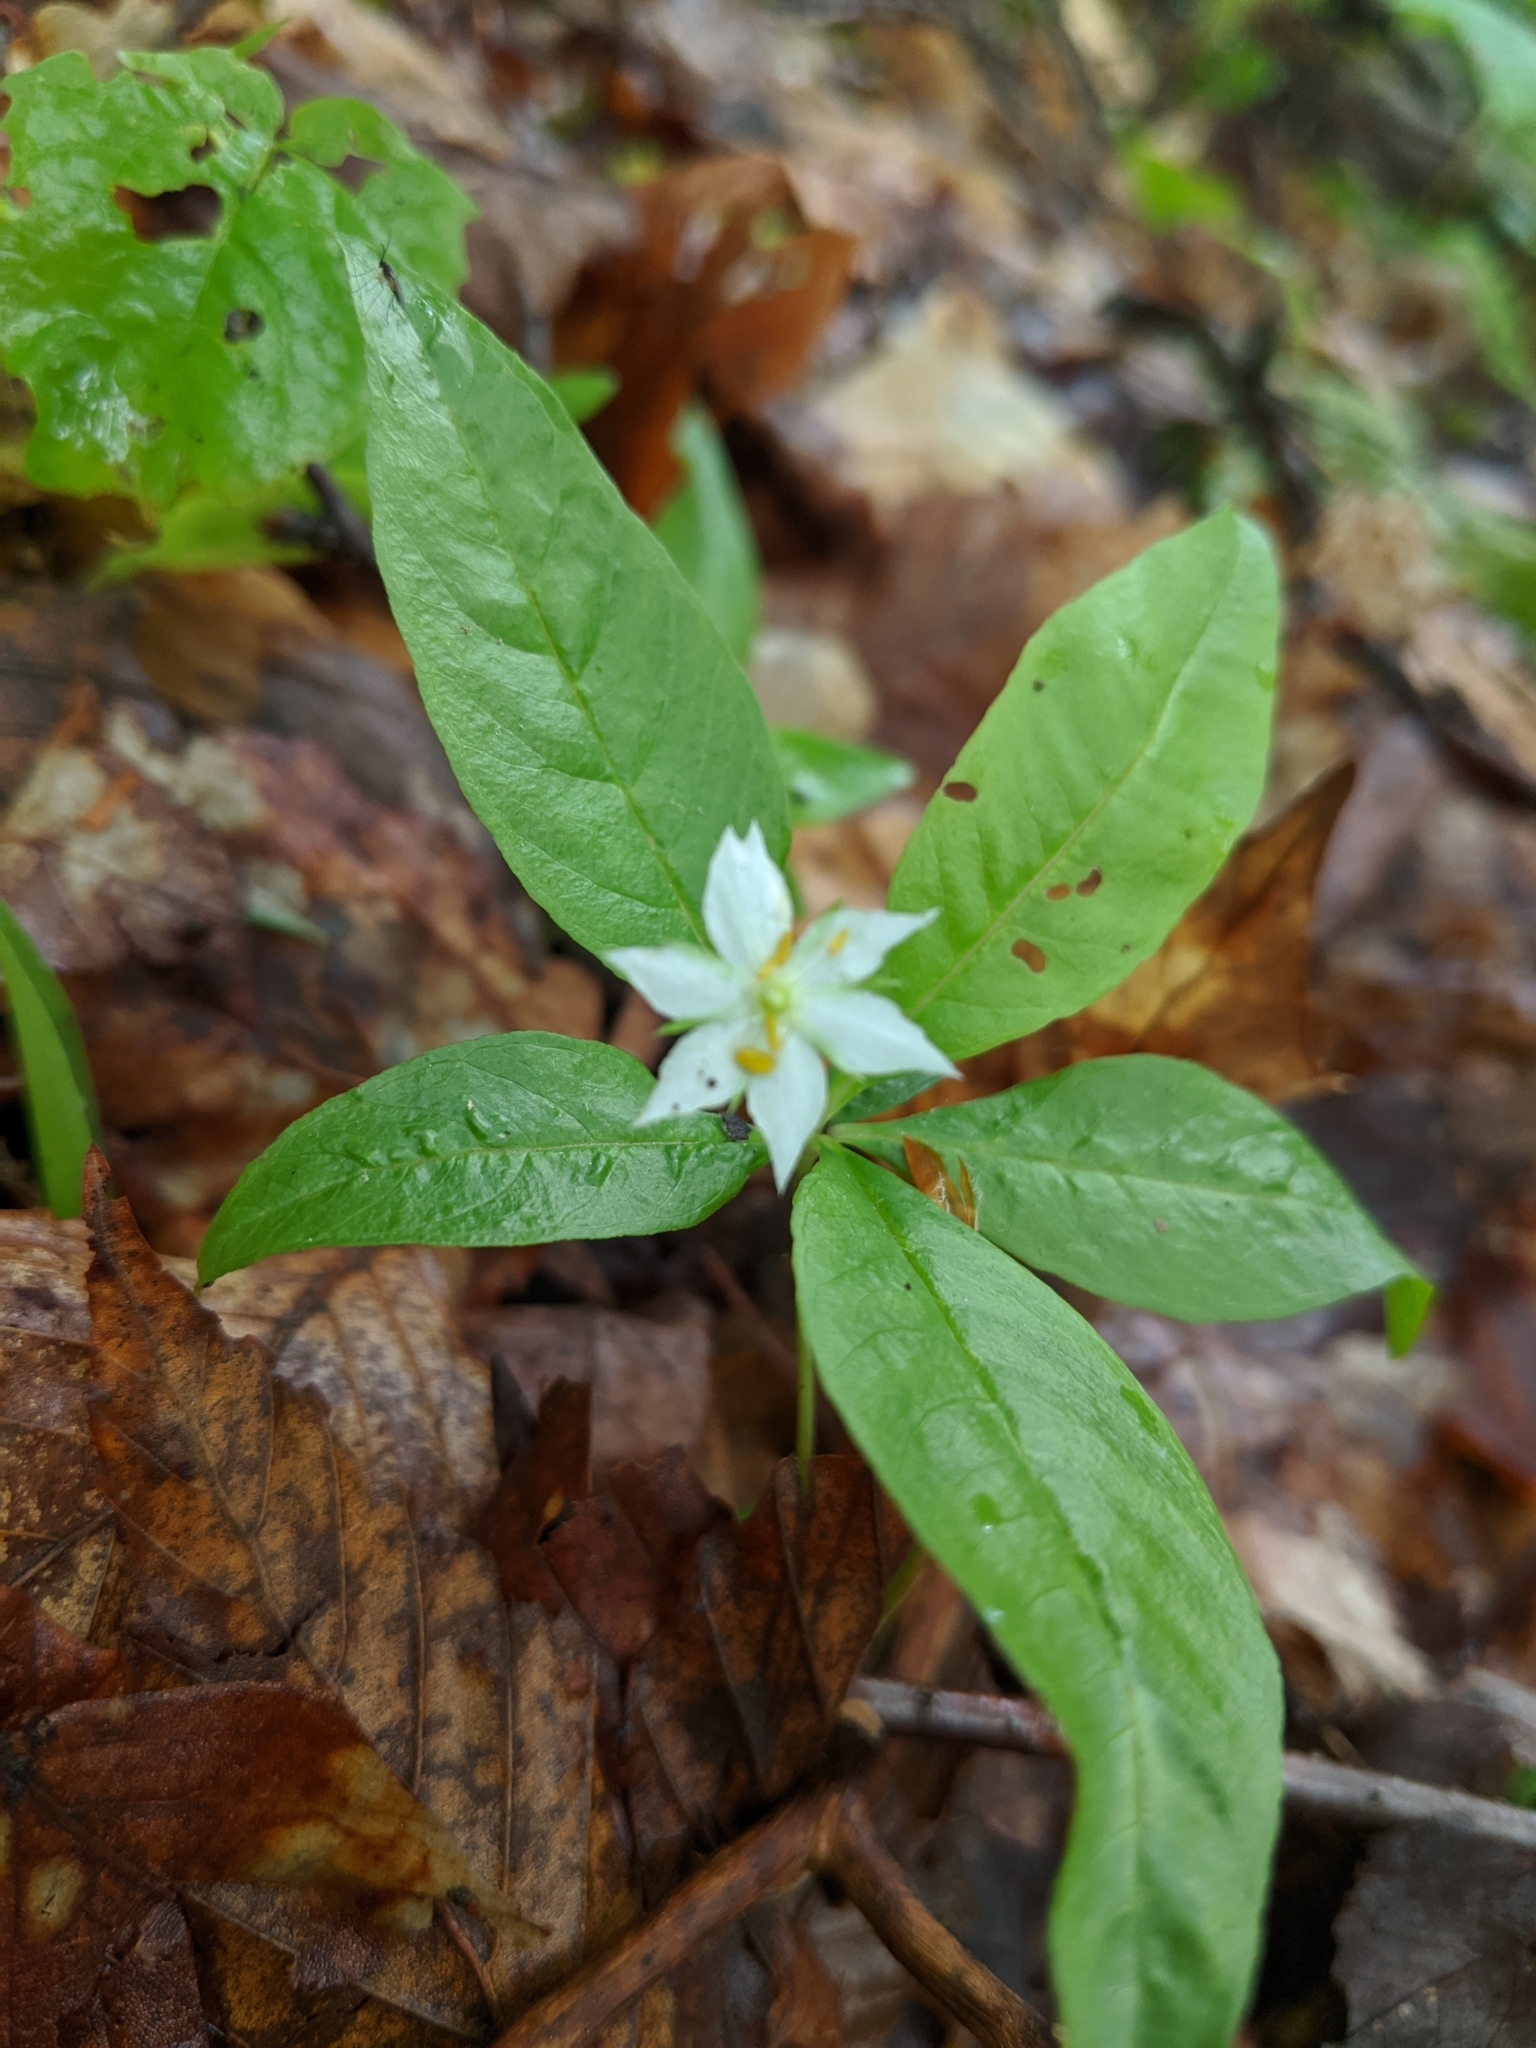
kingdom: Plantae
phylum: Tracheophyta
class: Magnoliopsida
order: Ericales
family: Primulaceae
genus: Lysimachia
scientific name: Lysimachia borealis
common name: American starflower
